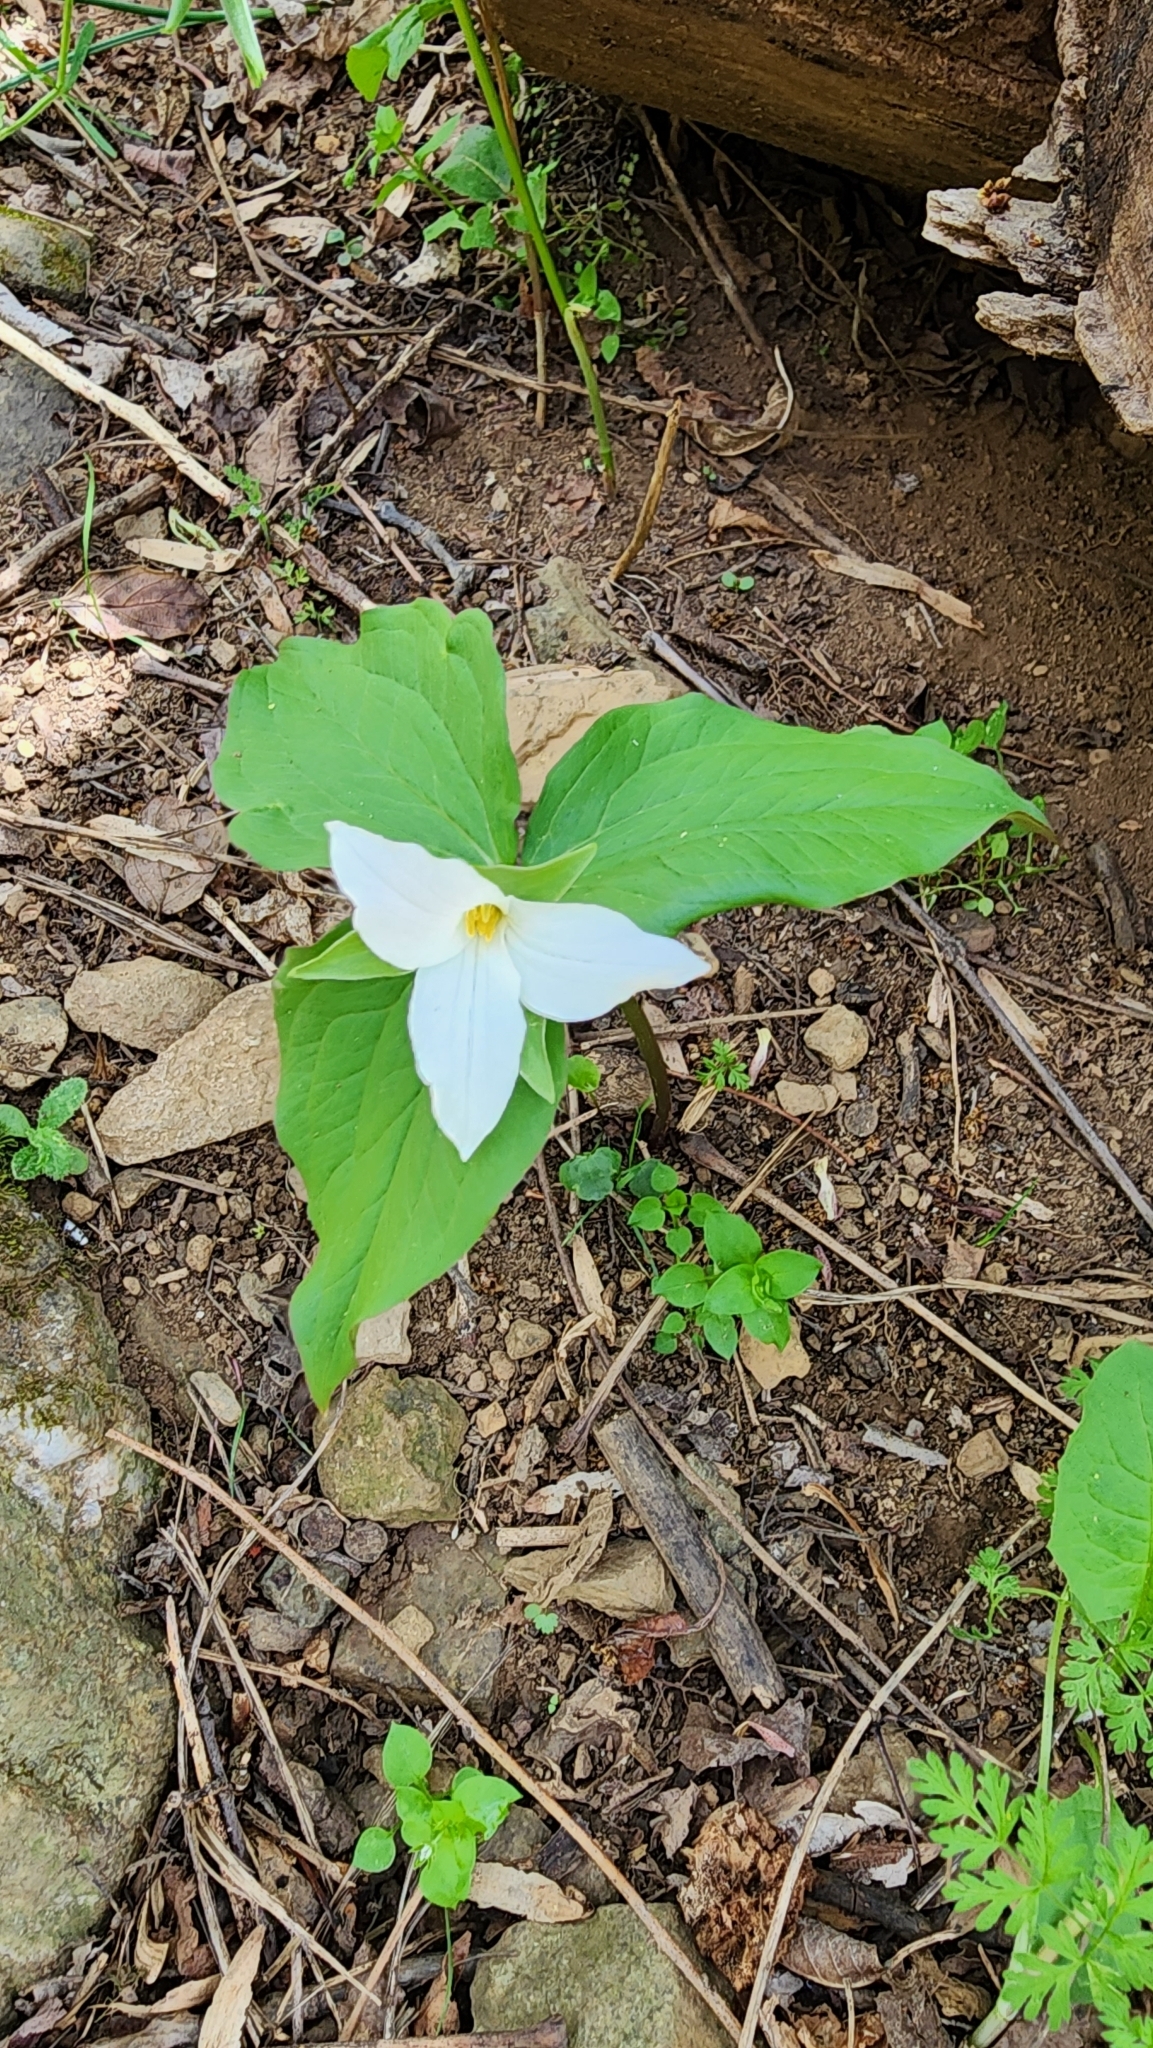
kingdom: Plantae
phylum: Tracheophyta
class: Liliopsida
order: Liliales
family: Melanthiaceae
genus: Trillium
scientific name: Trillium grandiflorum
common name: Great white trillium
